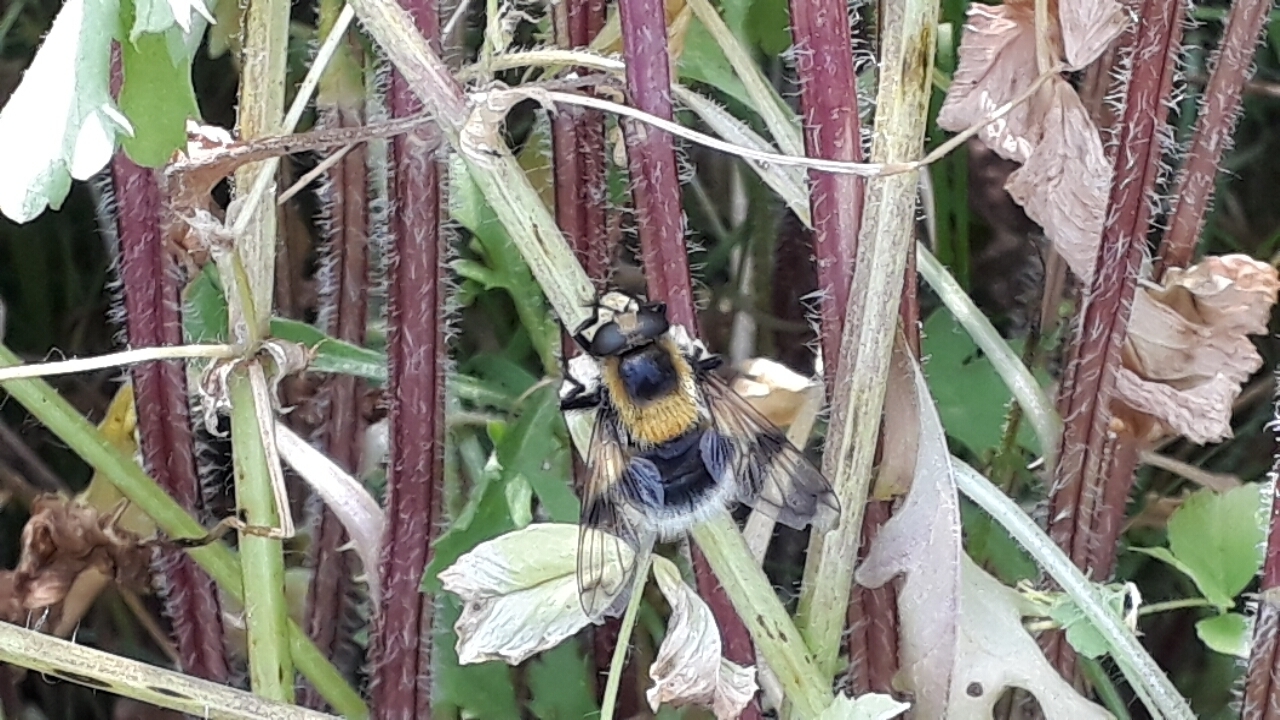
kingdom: Animalia
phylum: Arthropoda
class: Insecta
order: Diptera
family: Syrphidae
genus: Volucella
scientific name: Volucella bombylans
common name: Bumble bee hover fly
